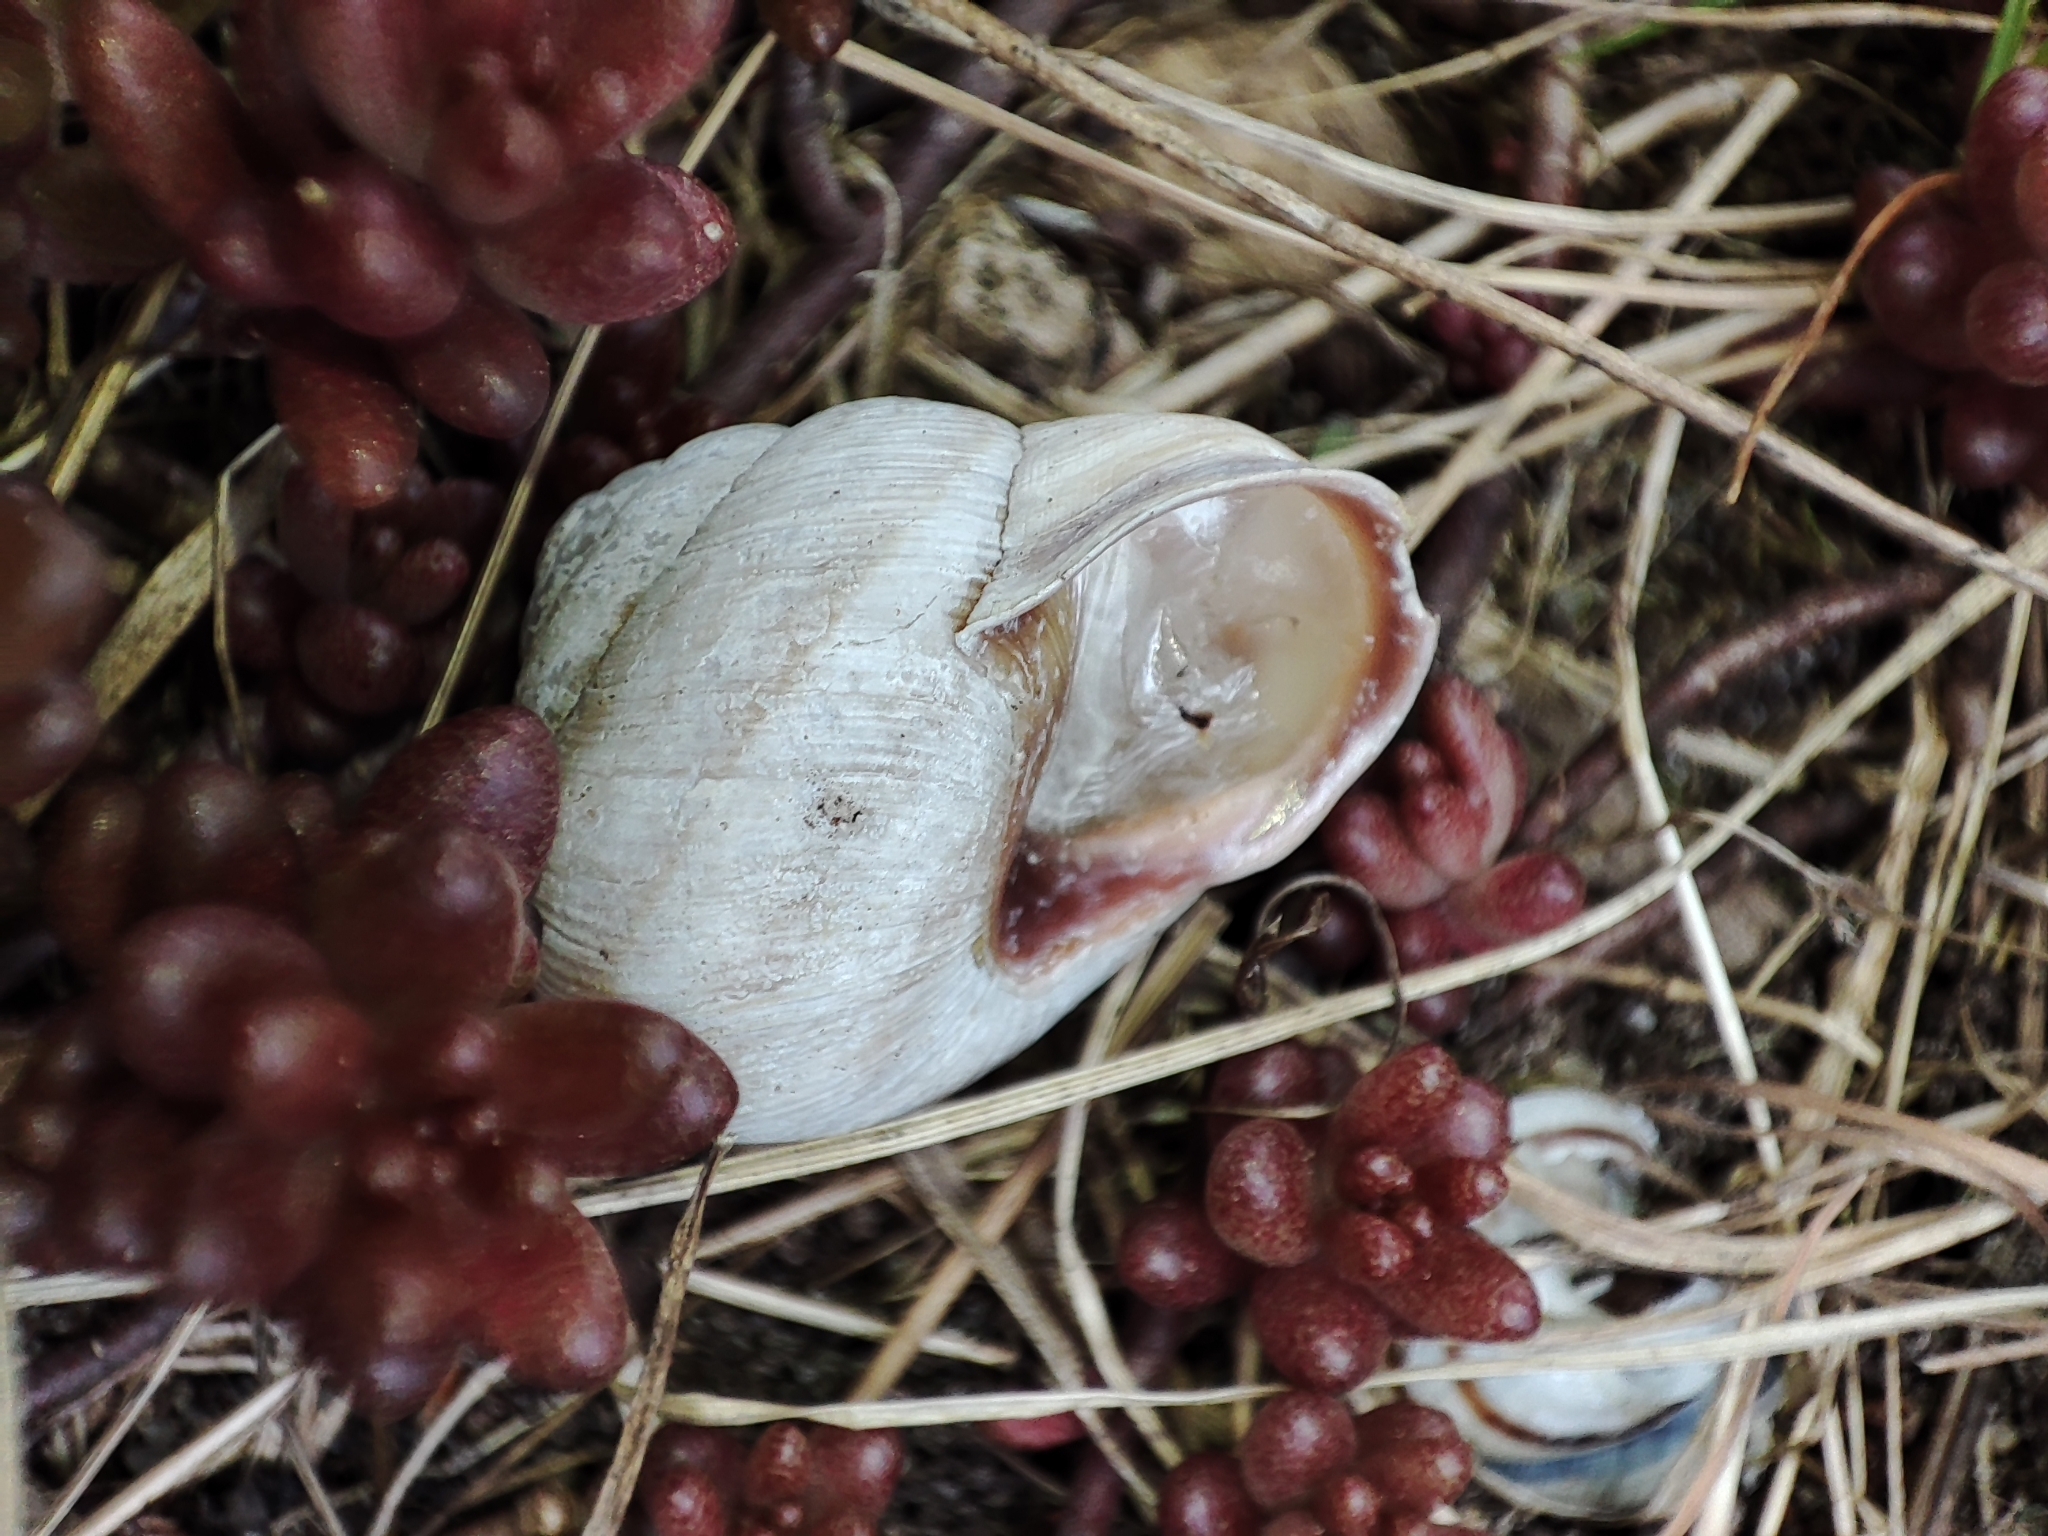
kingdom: Animalia
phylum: Mollusca
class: Gastropoda
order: Stylommatophora
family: Helicidae
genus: Caucasotachea
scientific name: Caucasotachea vindobonensis
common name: European helicid land snail
